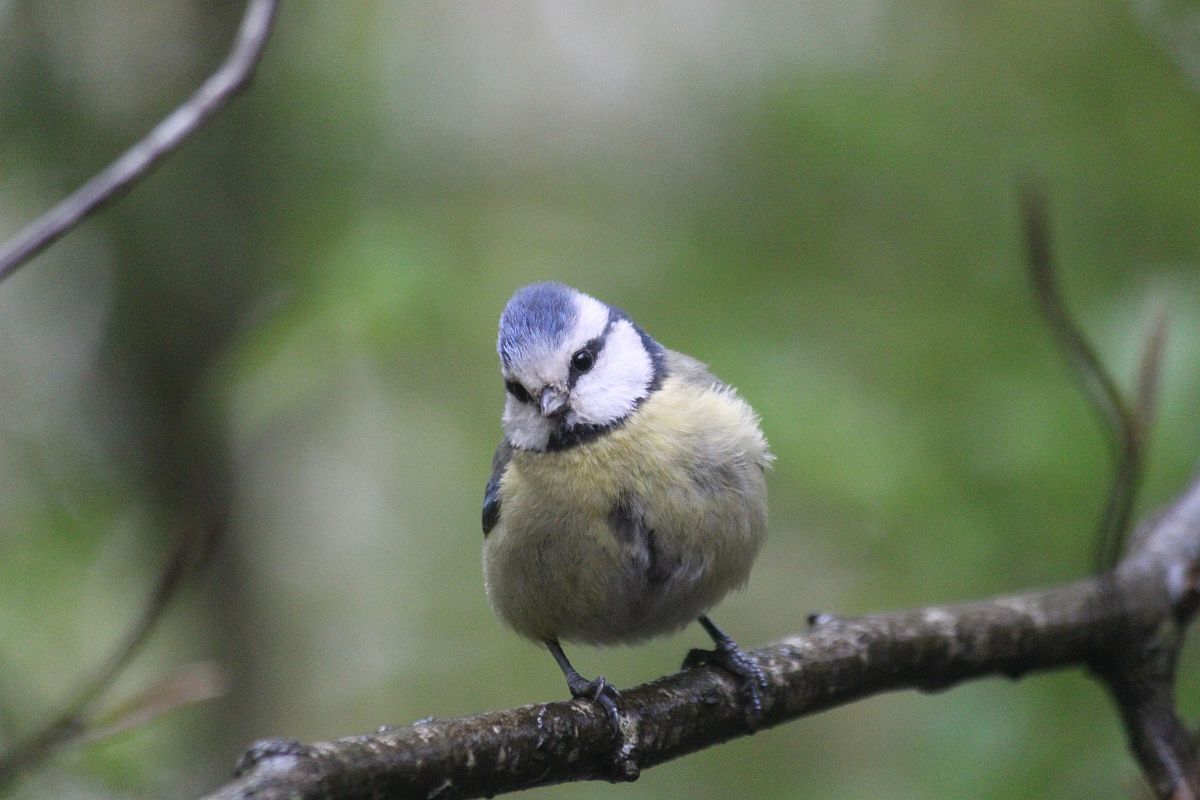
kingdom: Animalia
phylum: Chordata
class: Aves
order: Passeriformes
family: Paridae
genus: Cyanistes
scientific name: Cyanistes caeruleus
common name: Eurasian blue tit
